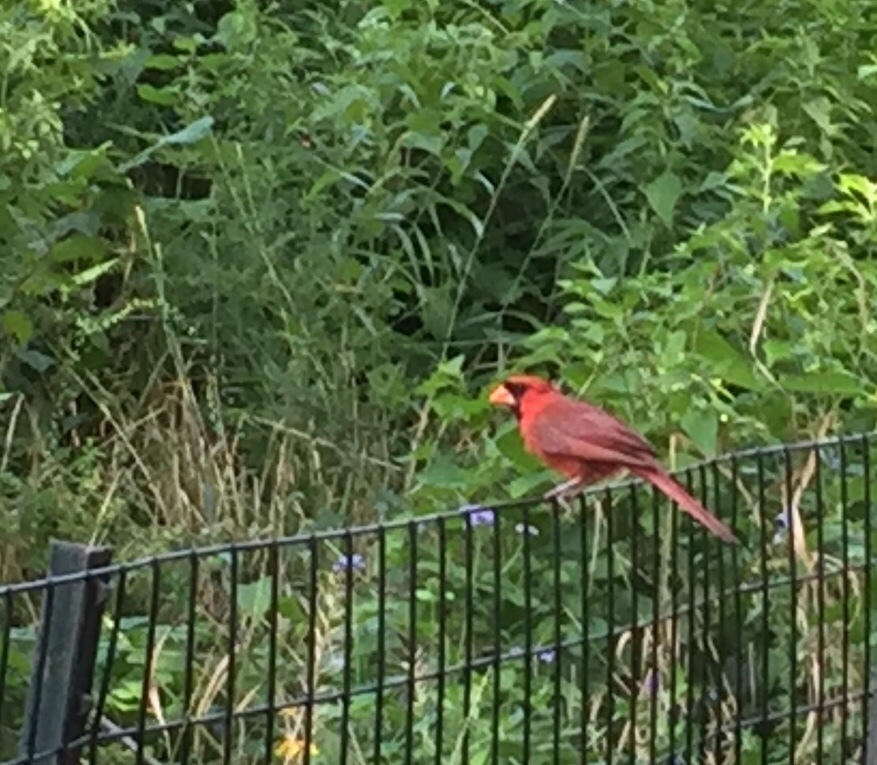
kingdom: Animalia
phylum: Chordata
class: Aves
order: Passeriformes
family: Cardinalidae
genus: Cardinalis
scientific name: Cardinalis cardinalis
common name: Northern cardinal
